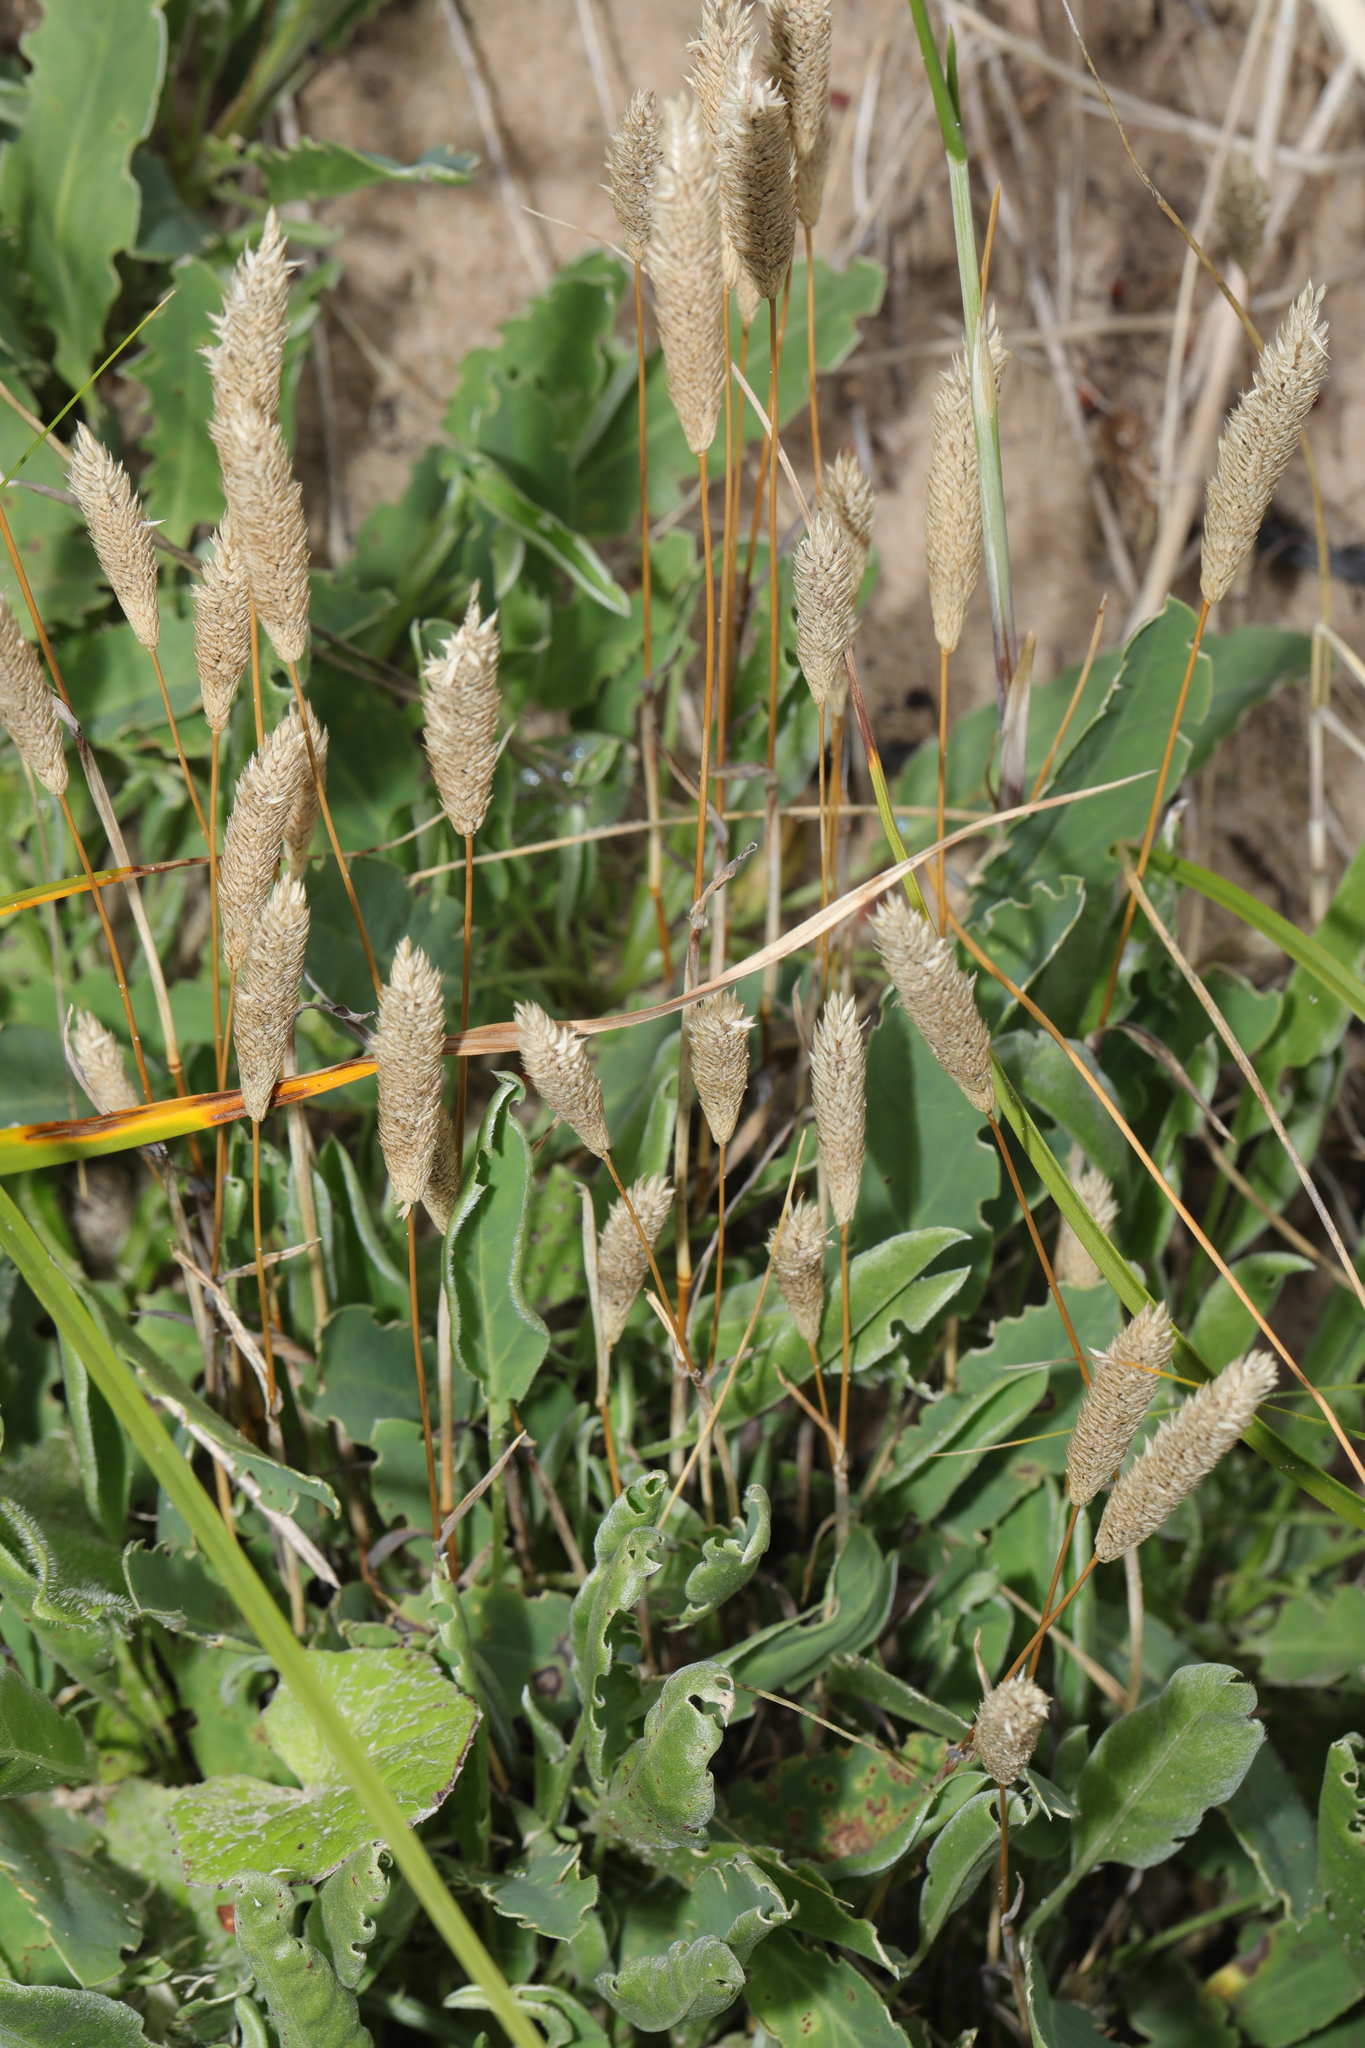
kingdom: Plantae
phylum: Tracheophyta
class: Liliopsida
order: Poales
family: Poaceae
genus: Phleum
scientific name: Phleum arenarium
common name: Sand cat's-tail
